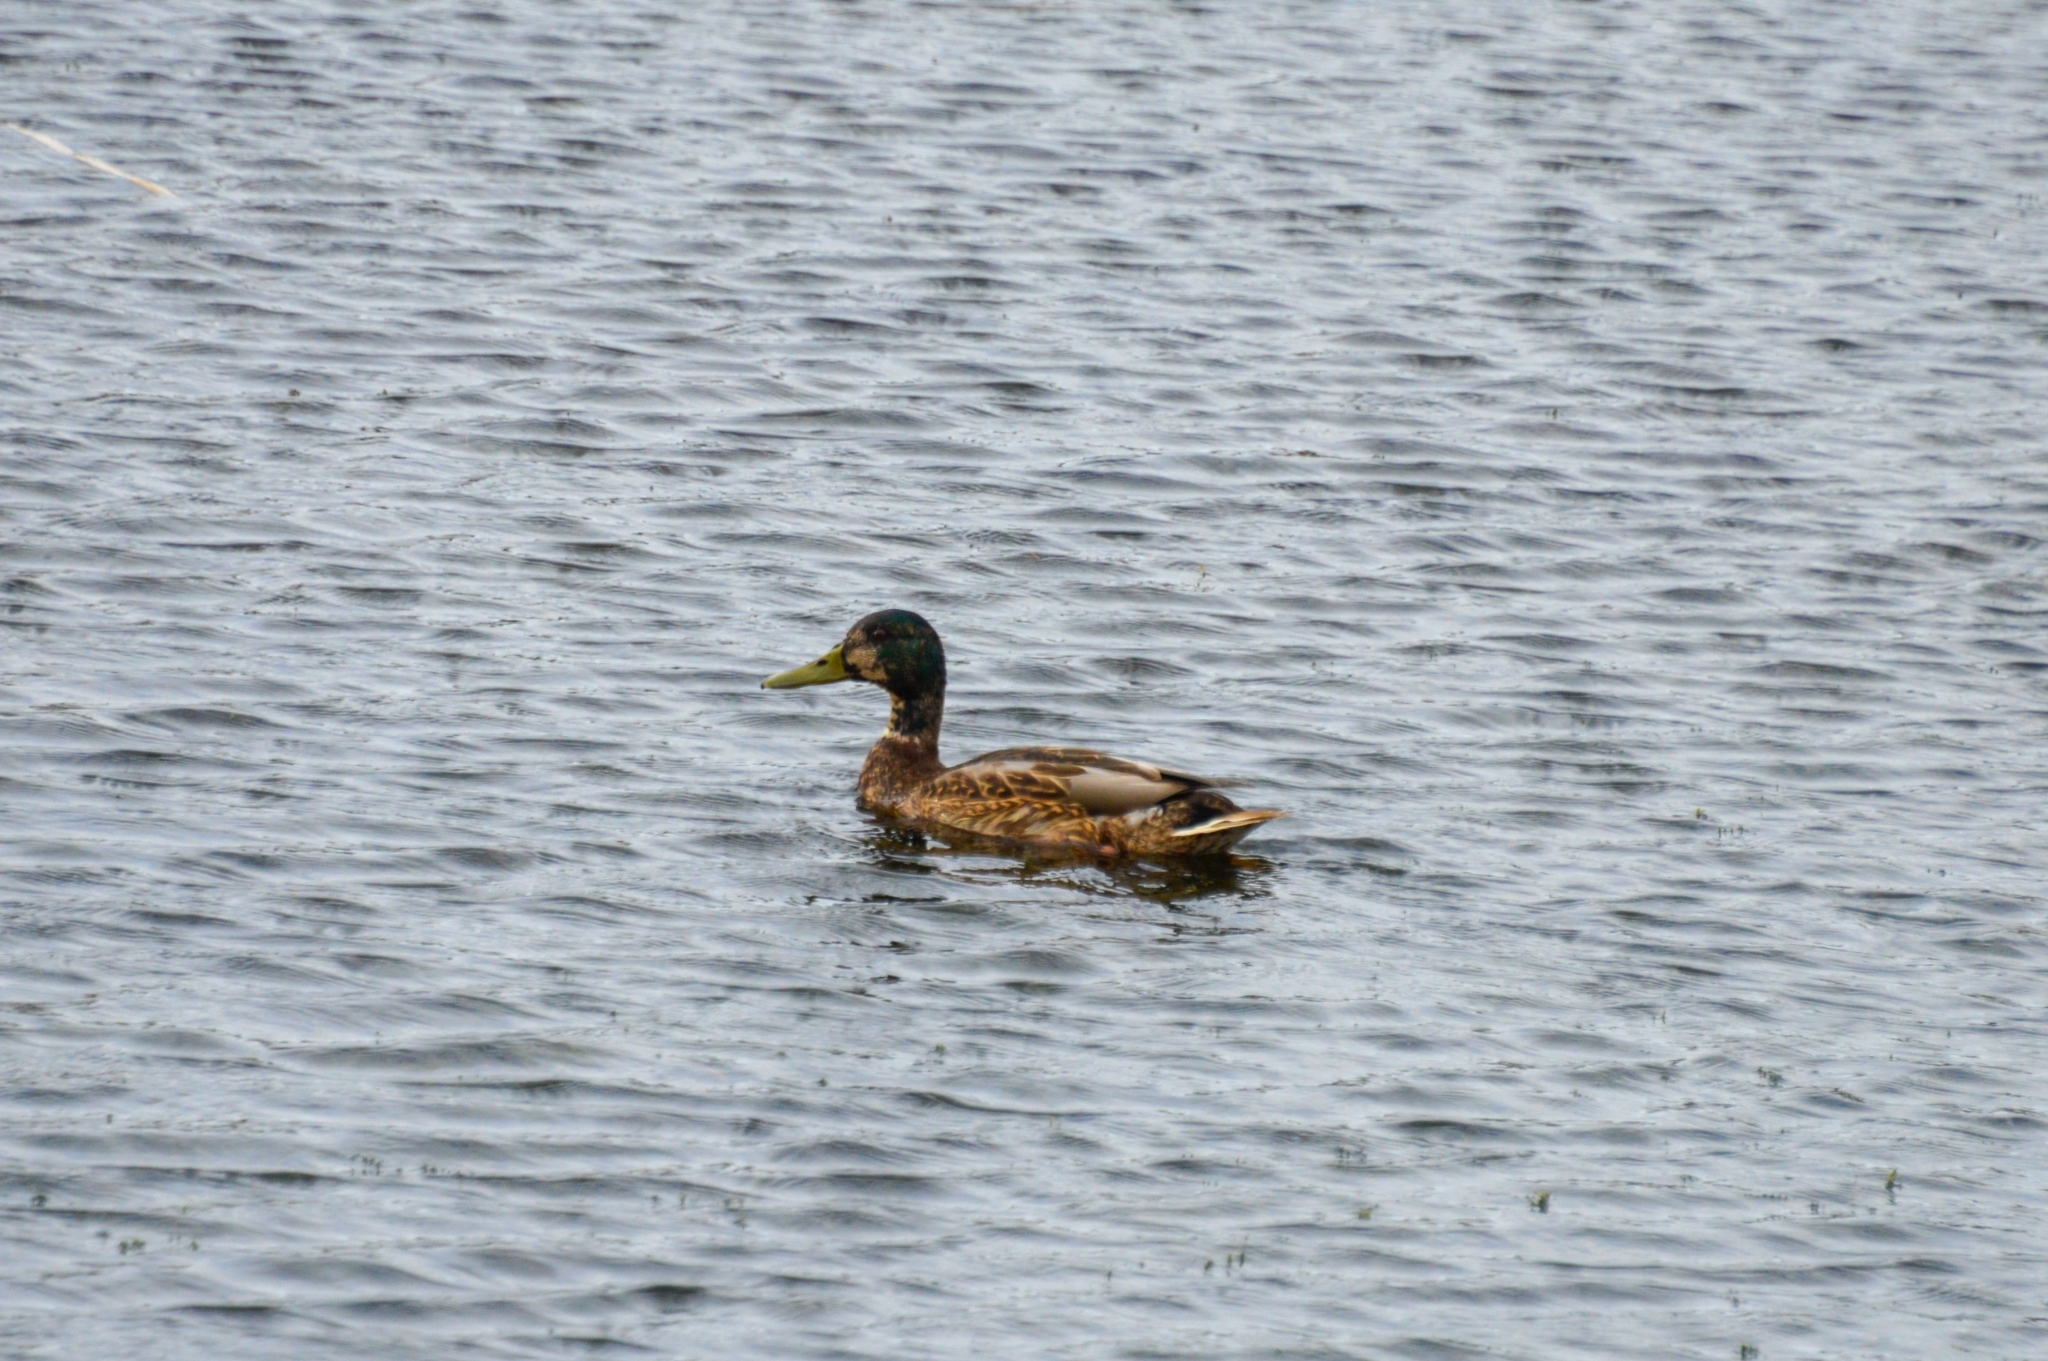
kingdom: Animalia
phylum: Chordata
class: Aves
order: Anseriformes
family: Anatidae
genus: Anas
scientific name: Anas platyrhynchos
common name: Mallard
